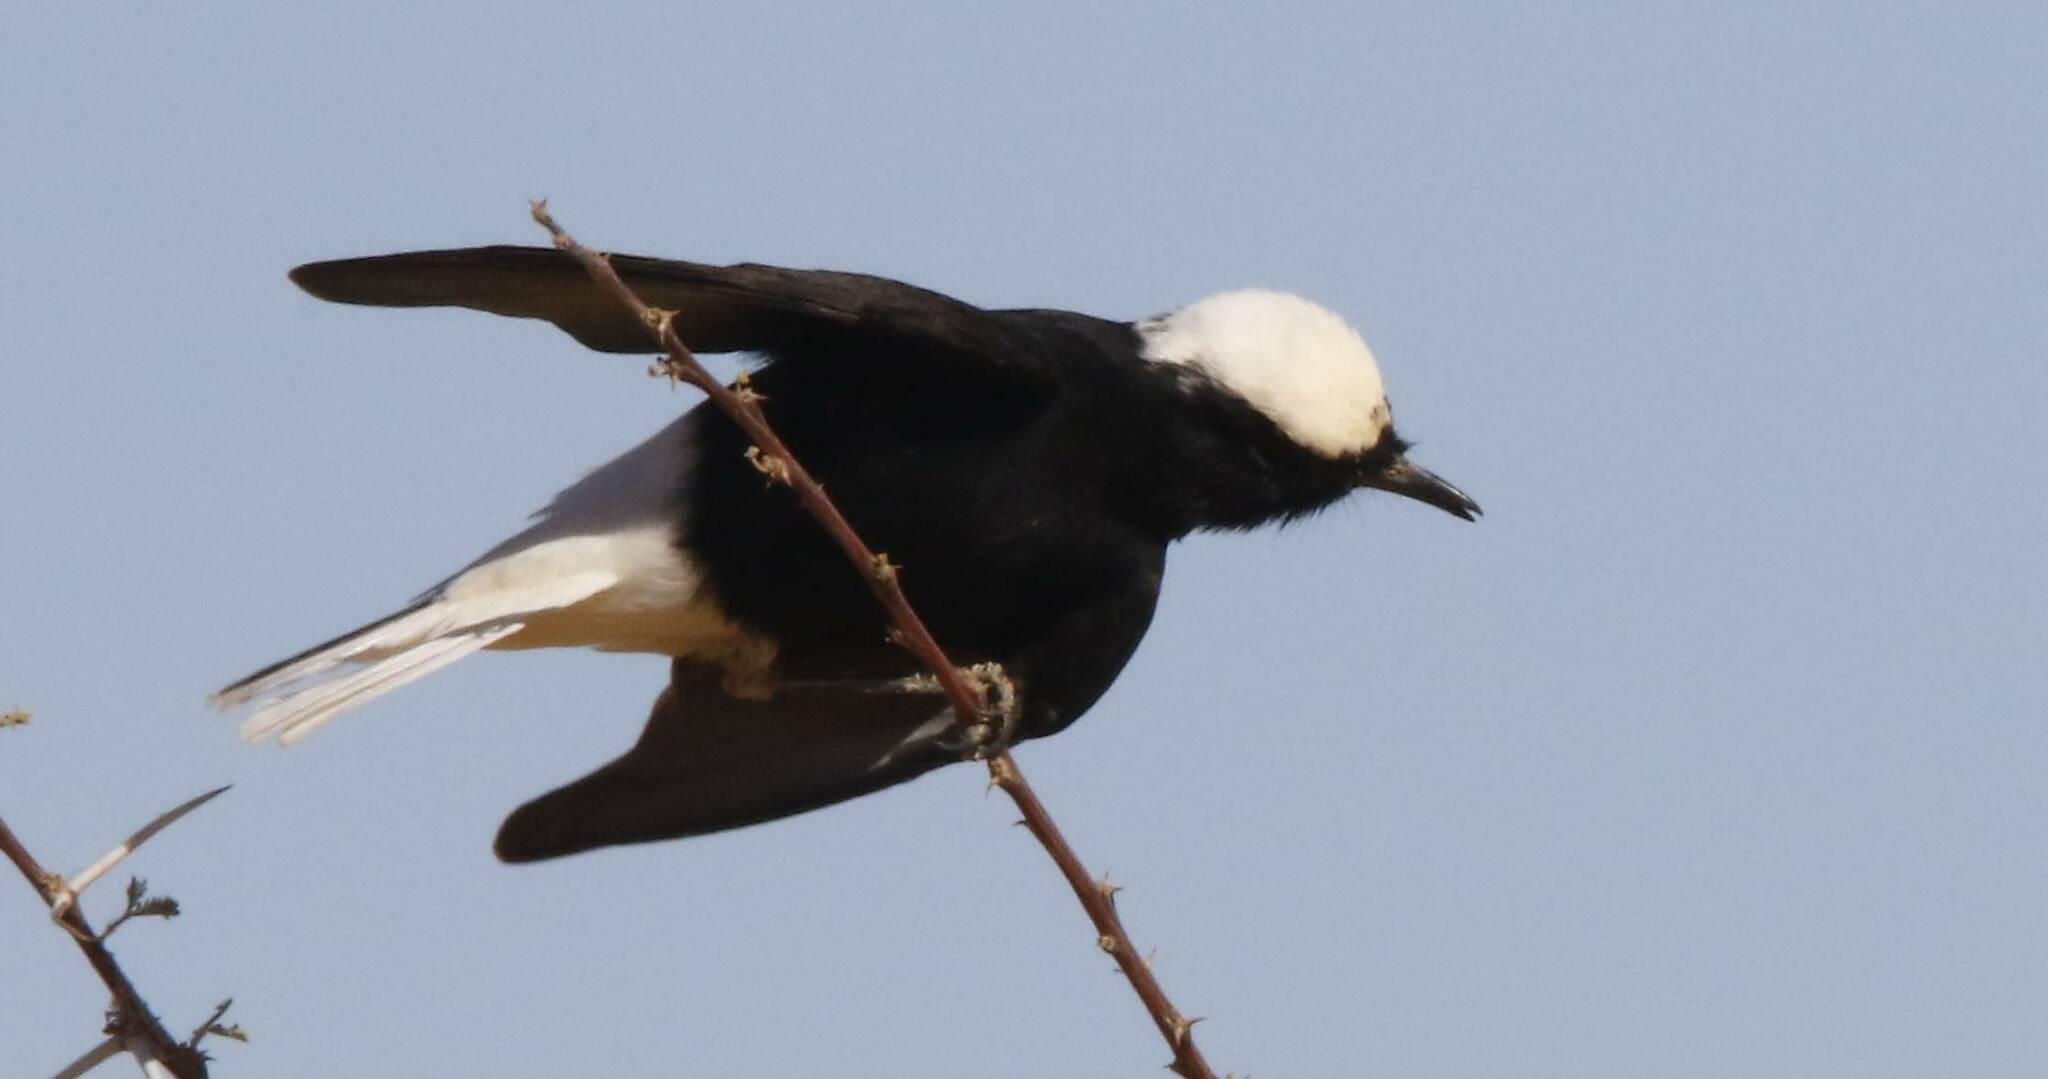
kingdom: Animalia
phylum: Chordata
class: Aves
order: Passeriformes
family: Muscicapidae
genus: Oenanthe
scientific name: Oenanthe leucopyga
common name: White-crowned wheatear
